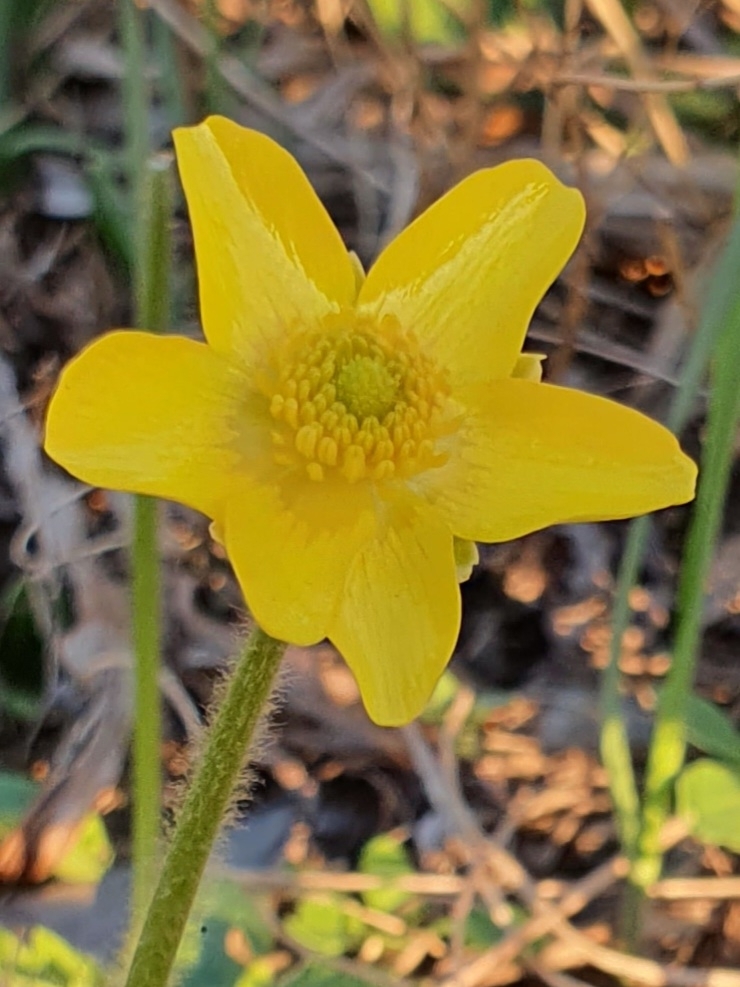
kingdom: Plantae
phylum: Tracheophyta
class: Magnoliopsida
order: Ranunculales
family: Ranunculaceae
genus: Ranunculus
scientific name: Ranunculus bullatus
